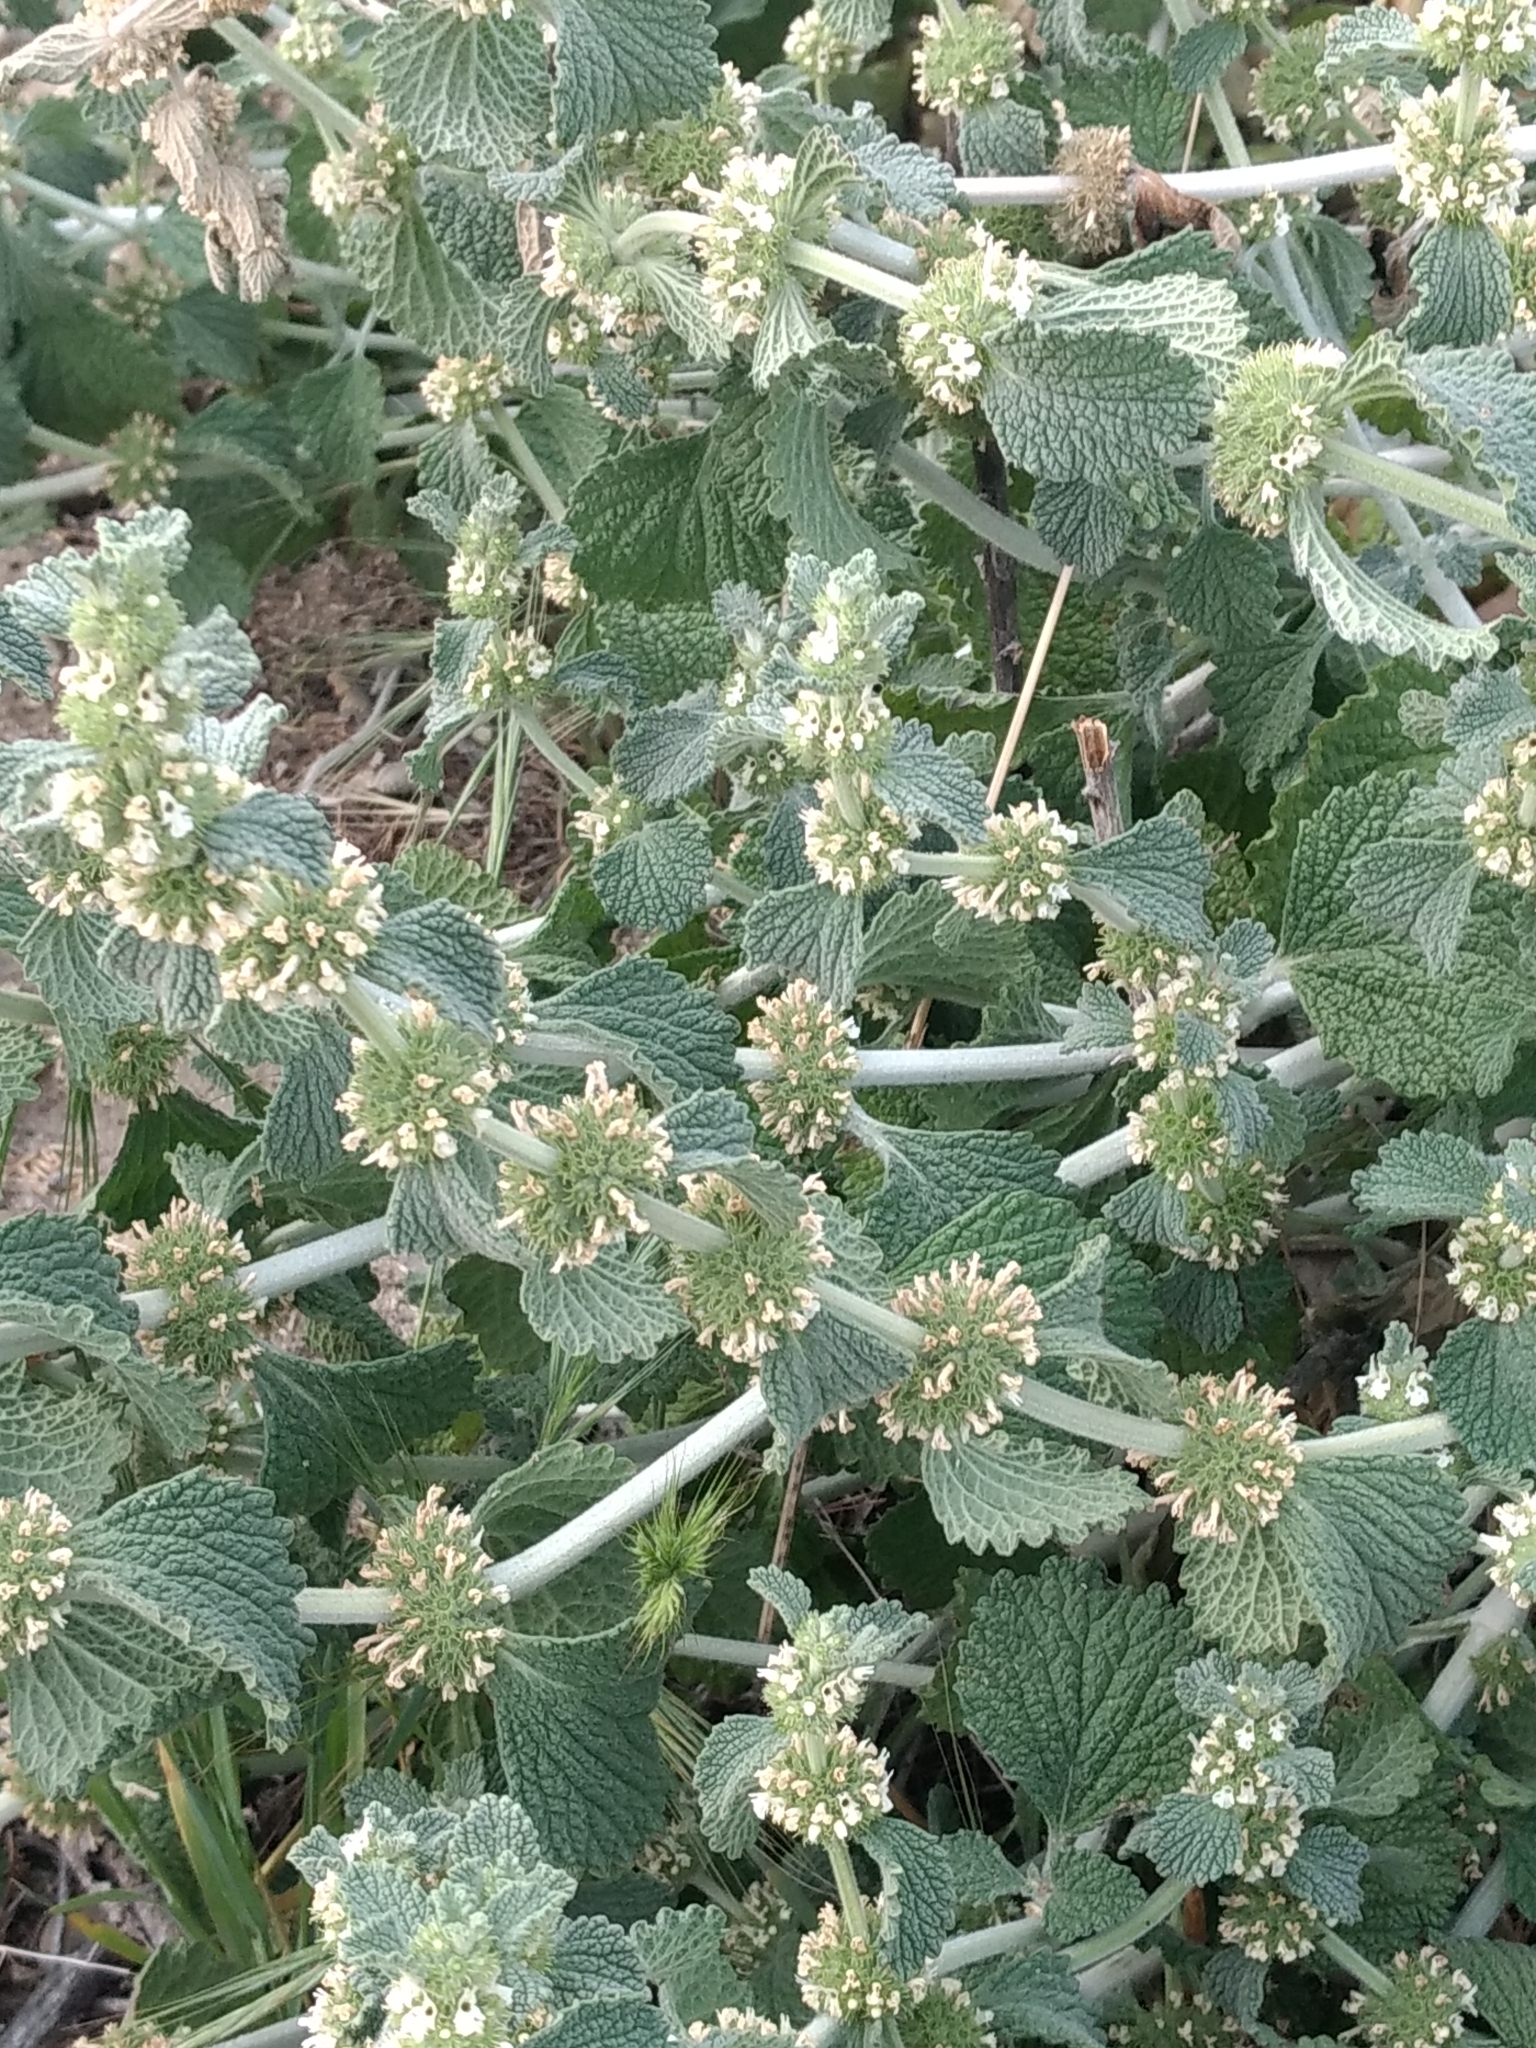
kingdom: Plantae
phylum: Tracheophyta
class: Magnoliopsida
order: Lamiales
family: Lamiaceae
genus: Marrubium
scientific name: Marrubium vulgare
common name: Horehound
